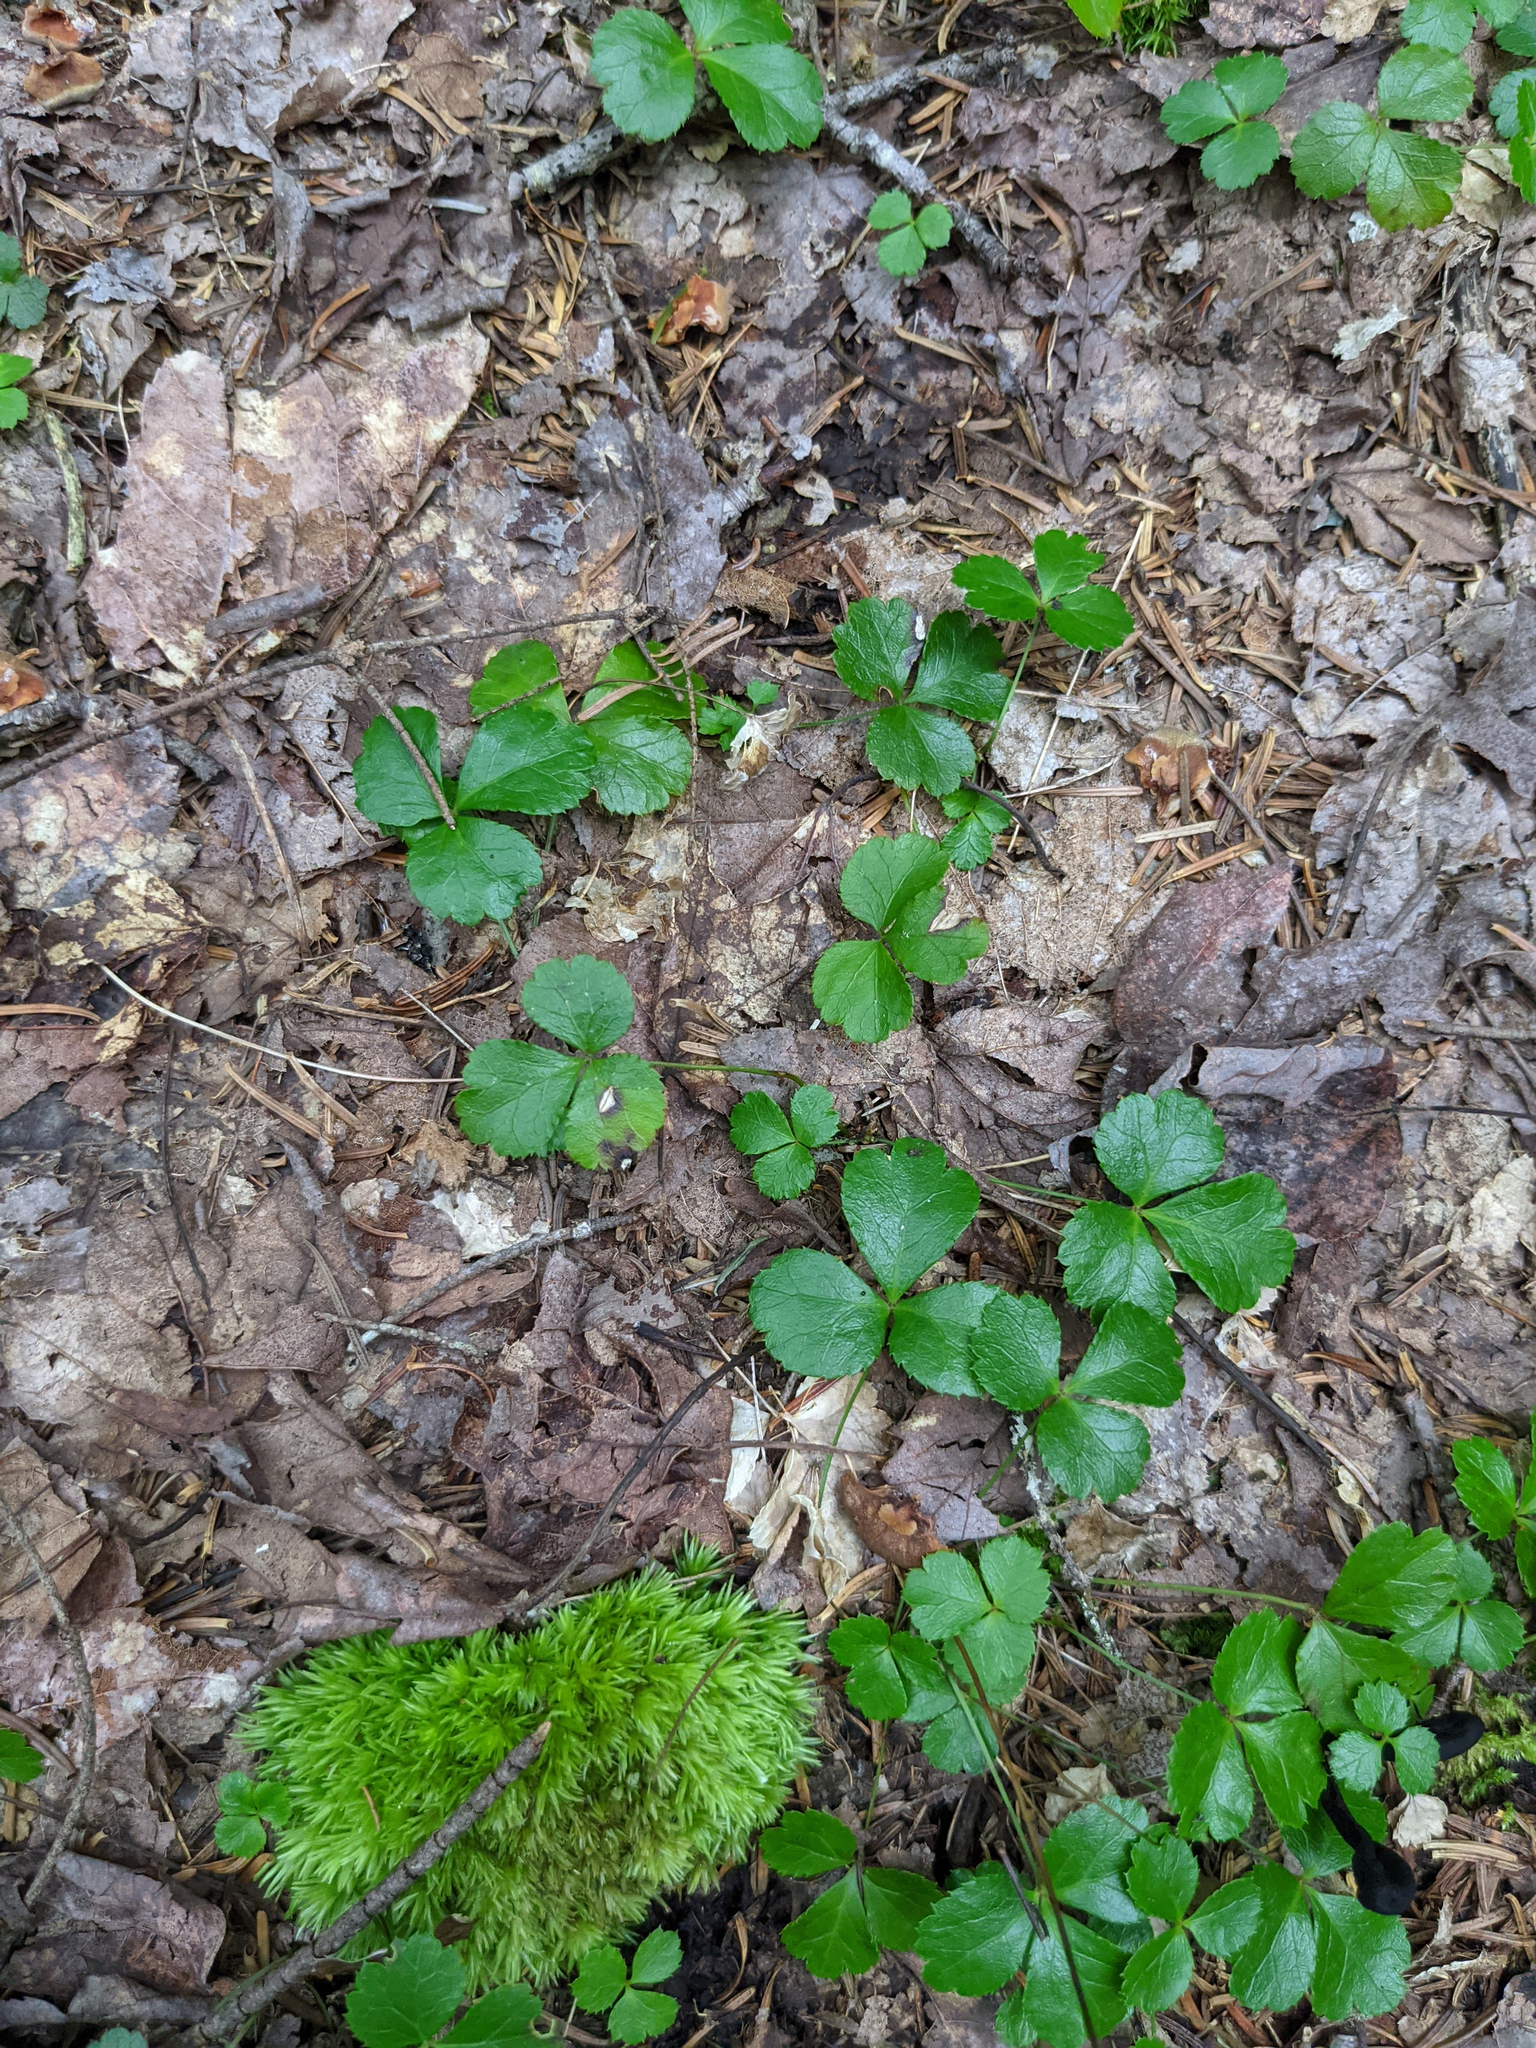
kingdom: Plantae
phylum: Tracheophyta
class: Magnoliopsida
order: Ranunculales
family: Ranunculaceae
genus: Coptis
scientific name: Coptis trifolia
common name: Canker-root
